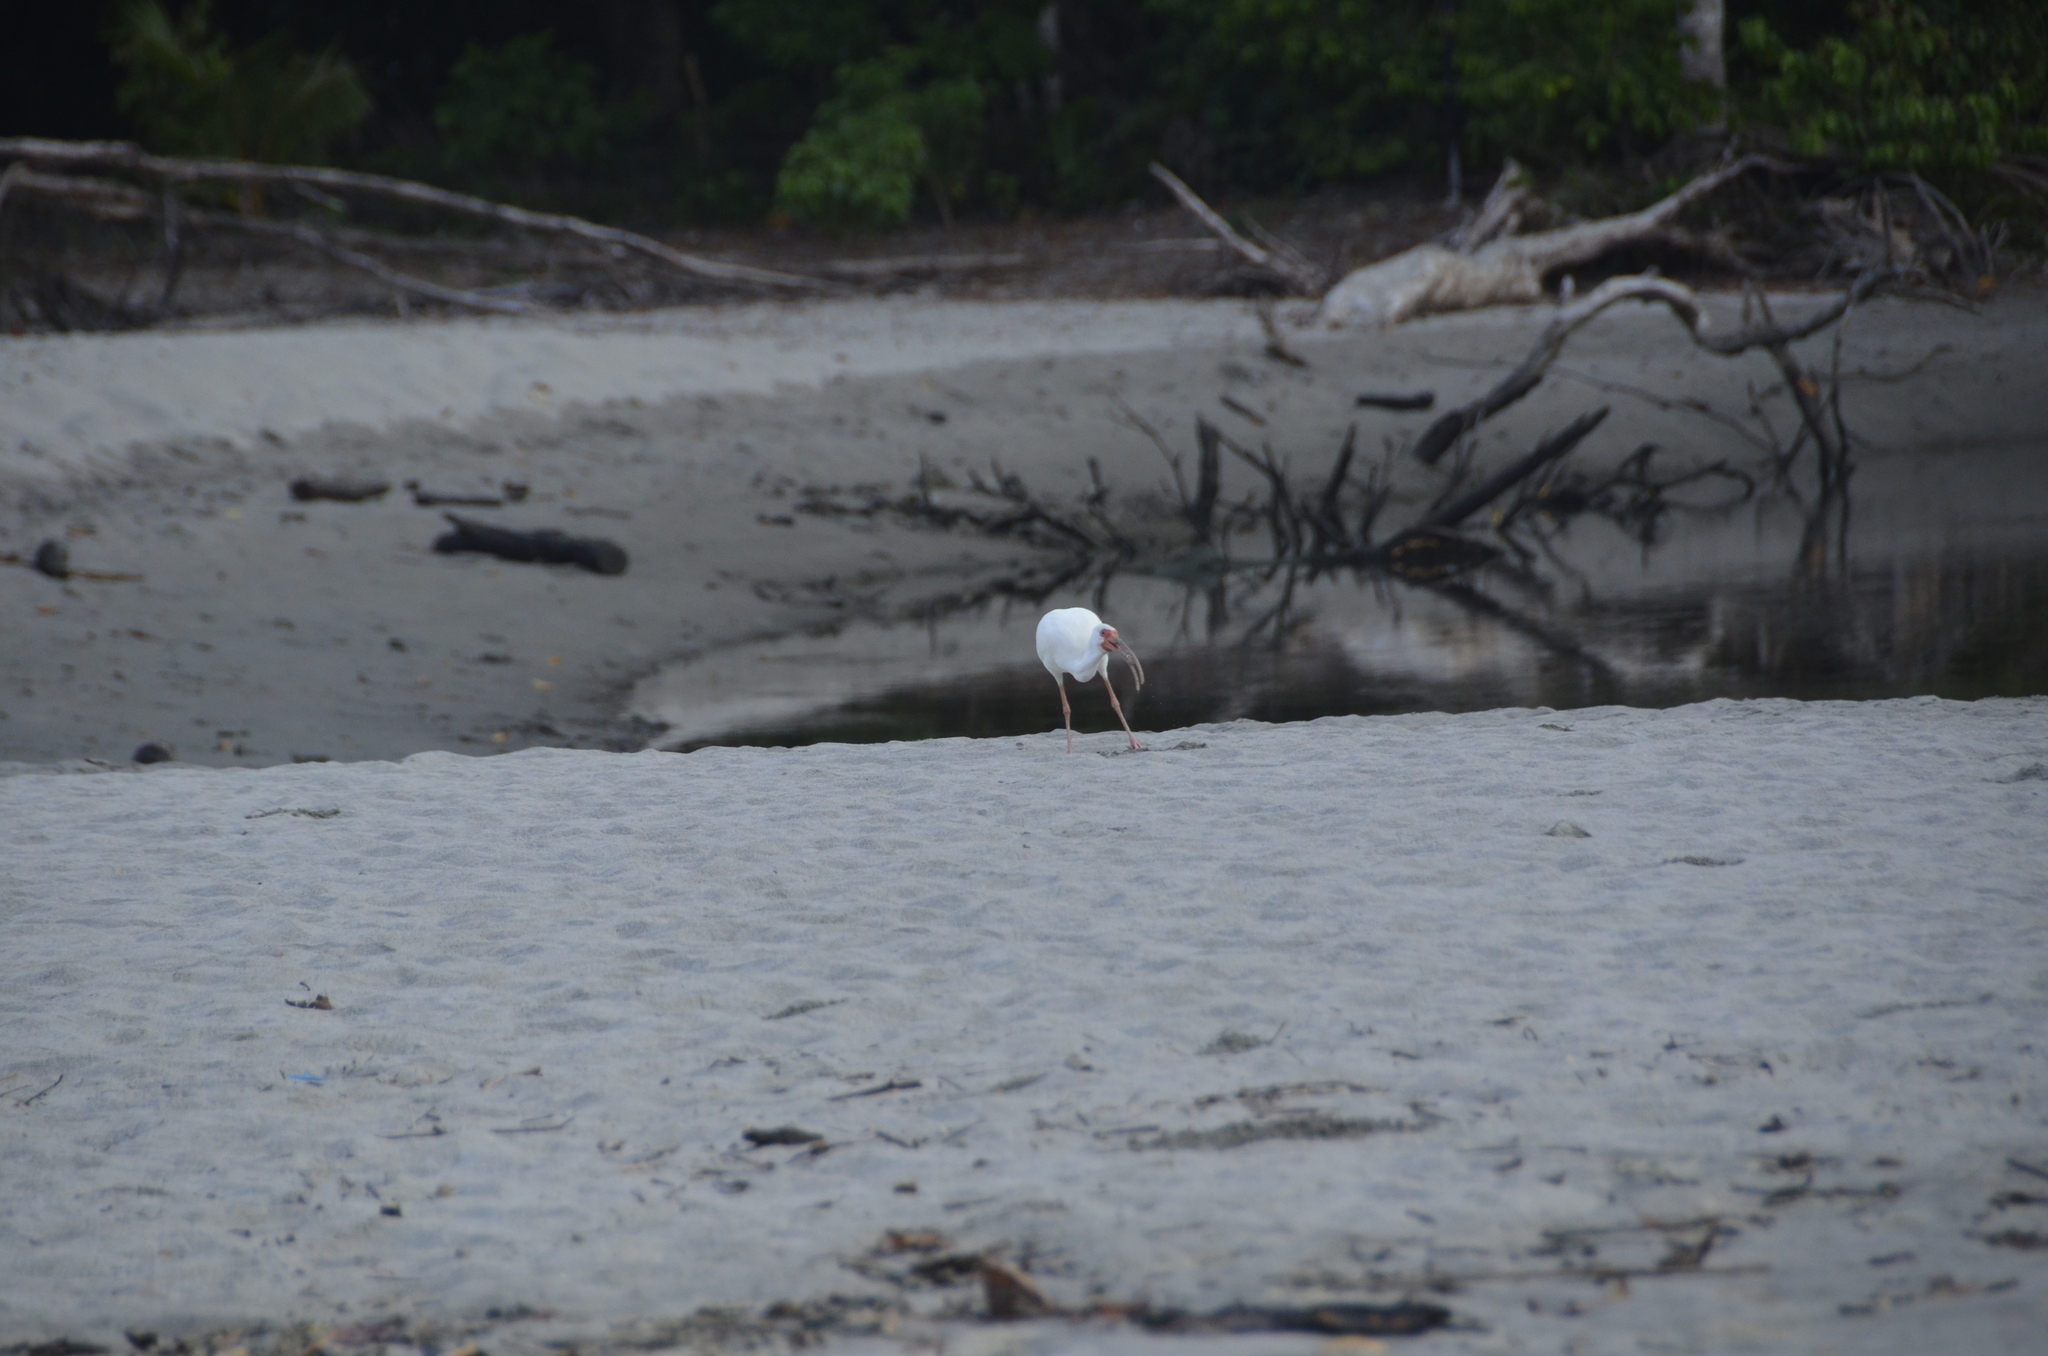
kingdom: Animalia
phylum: Chordata
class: Aves
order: Pelecaniformes
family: Threskiornithidae
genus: Eudocimus
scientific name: Eudocimus albus
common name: White ibis
